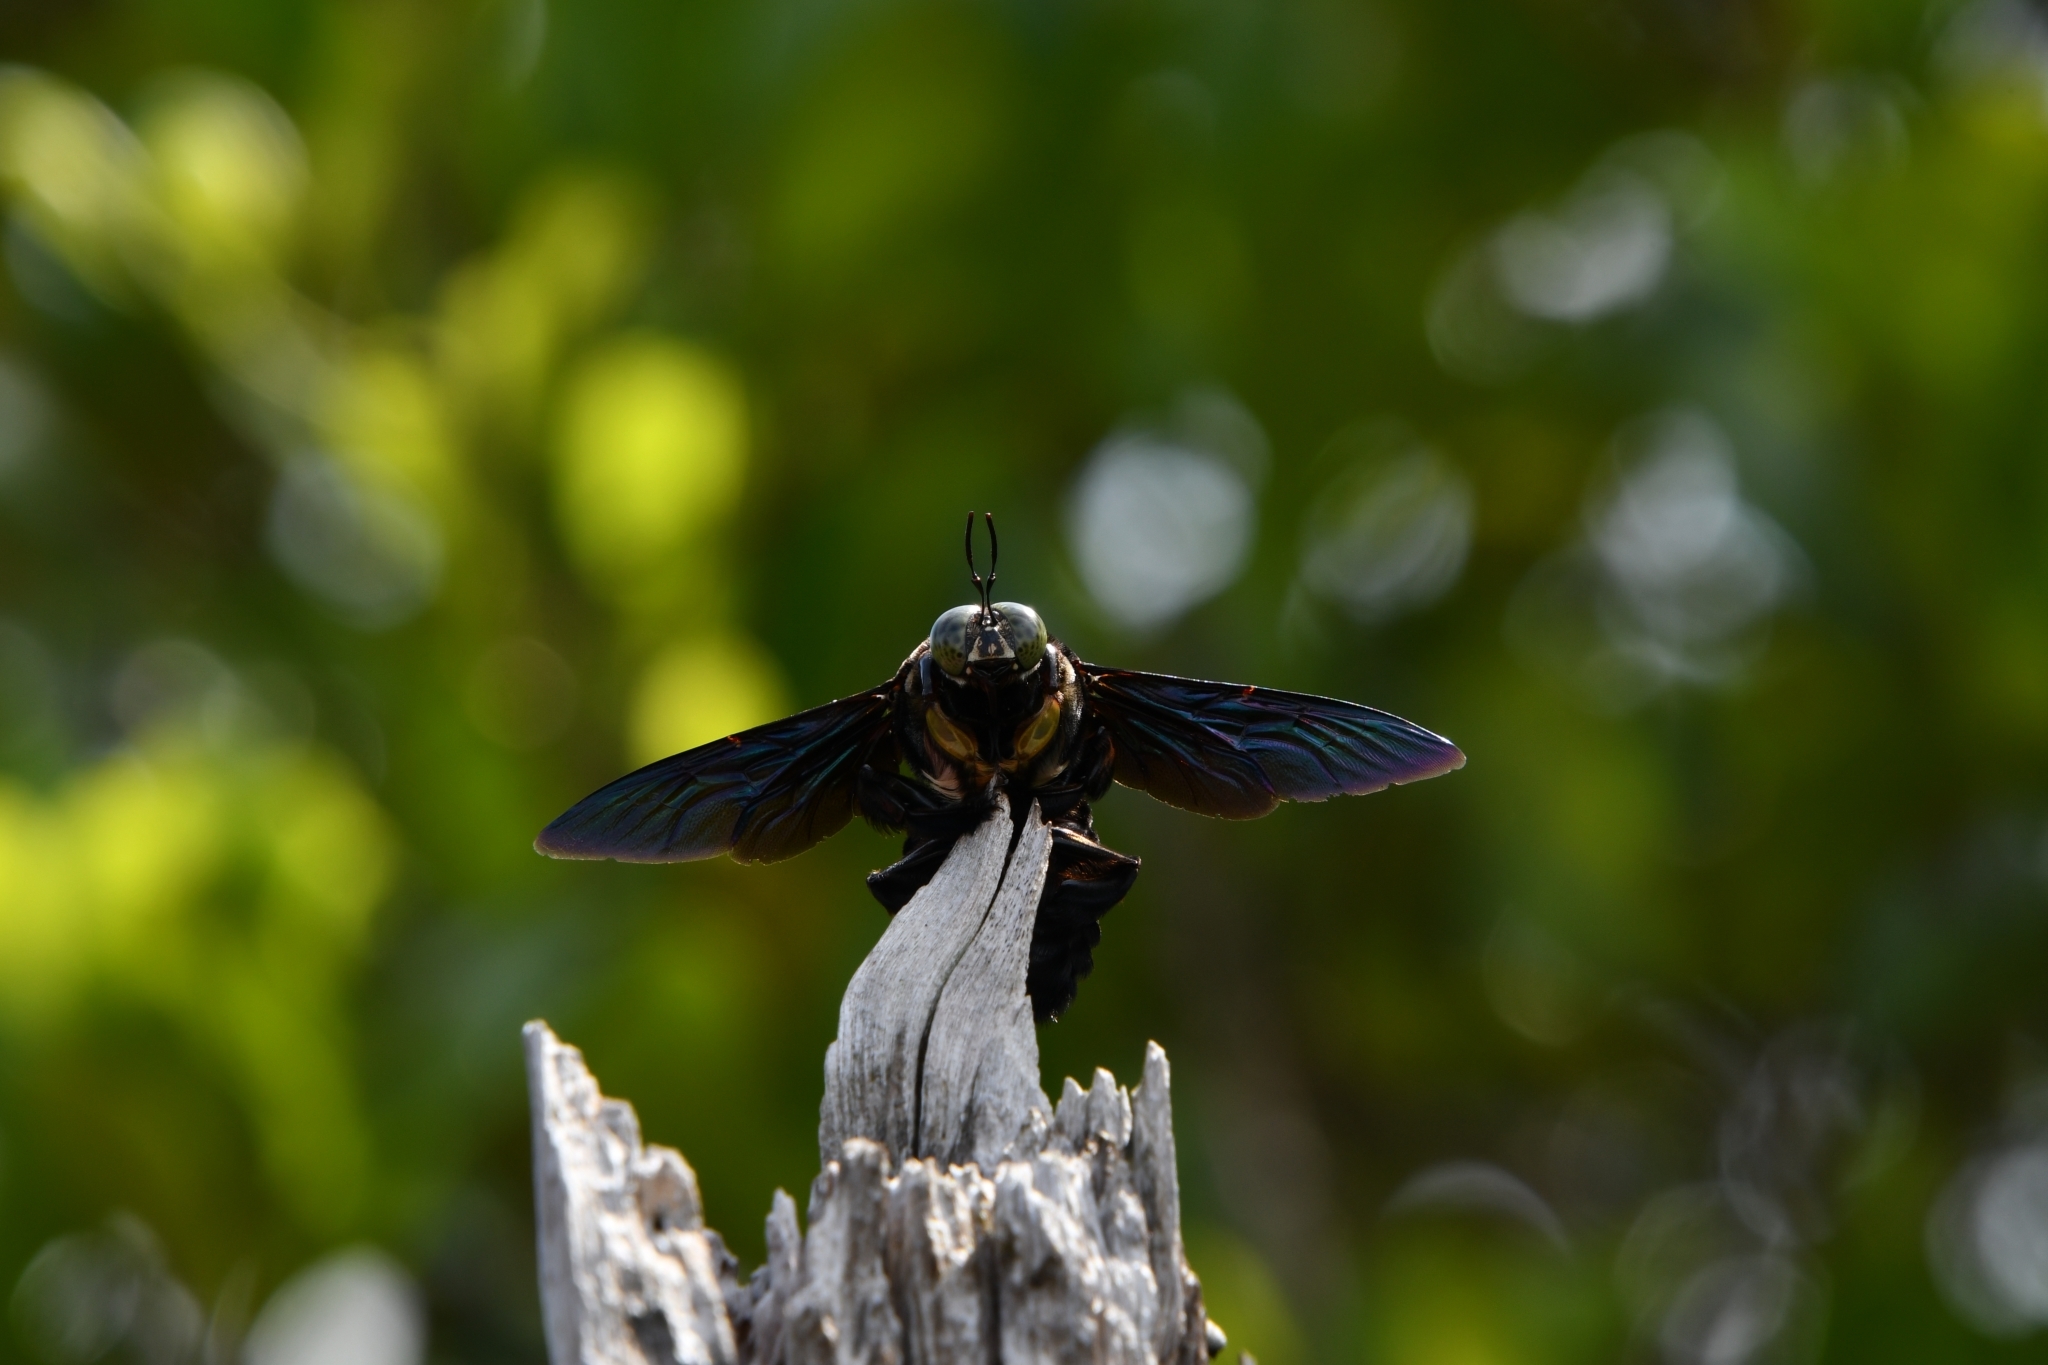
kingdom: Animalia
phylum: Arthropoda
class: Insecta
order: Hymenoptera
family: Apidae
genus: Xylocopa
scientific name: Xylocopa latipes
